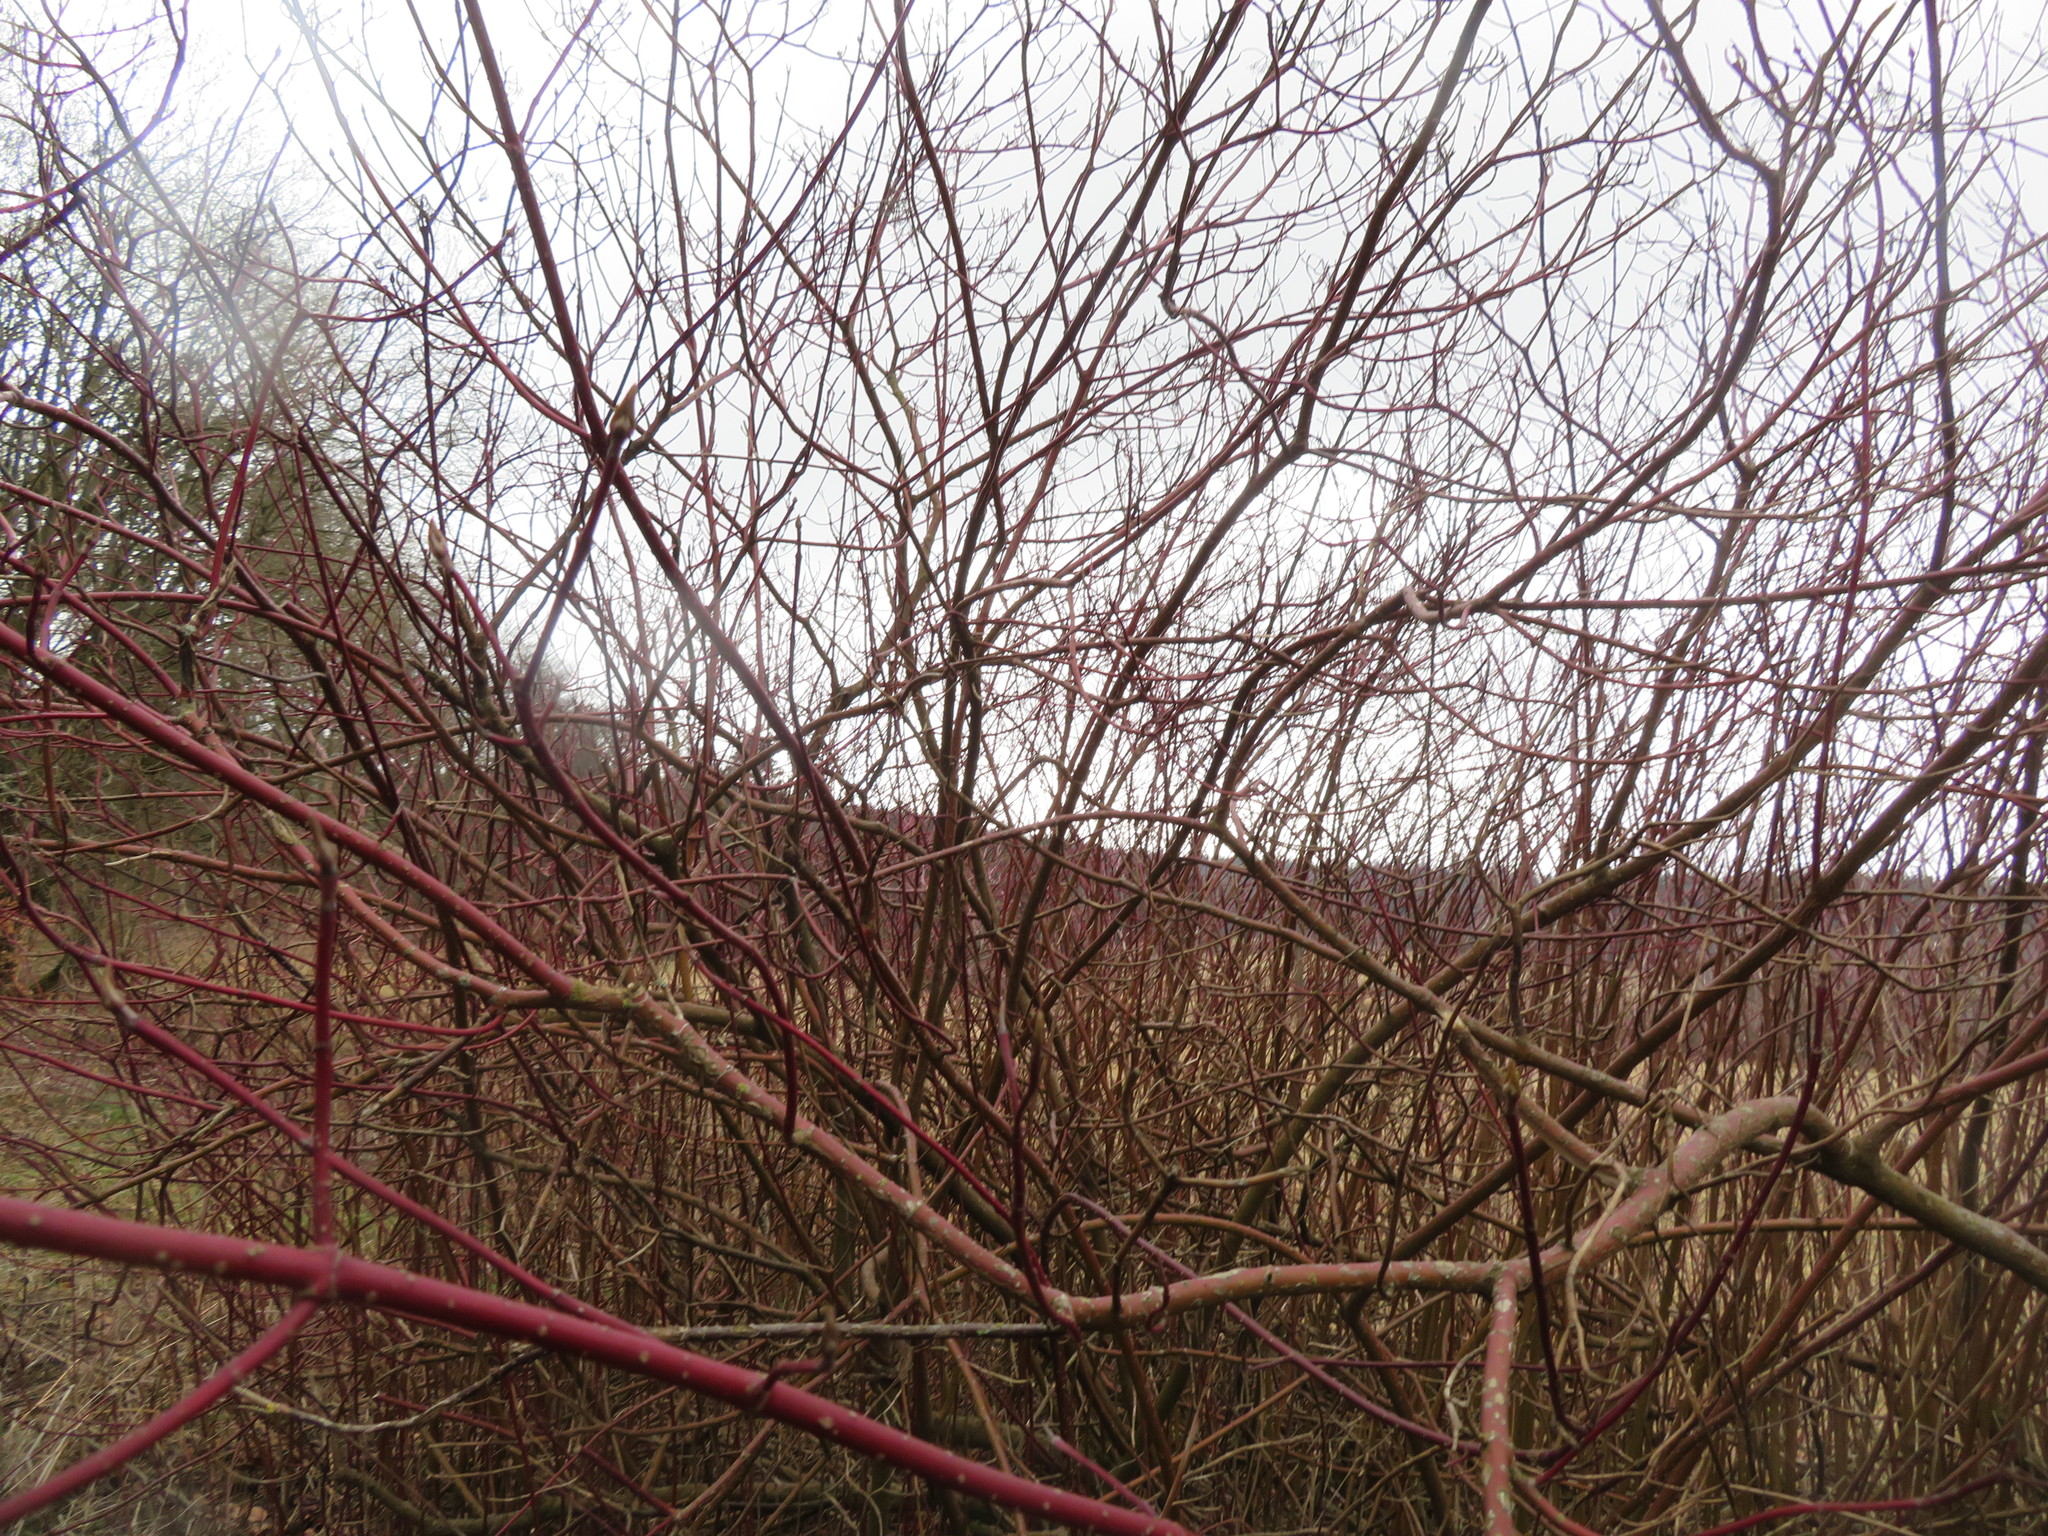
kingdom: Plantae
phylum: Tracheophyta
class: Magnoliopsida
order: Cornales
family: Cornaceae
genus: Cornus
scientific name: Cornus sanguinea
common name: Dogwood
